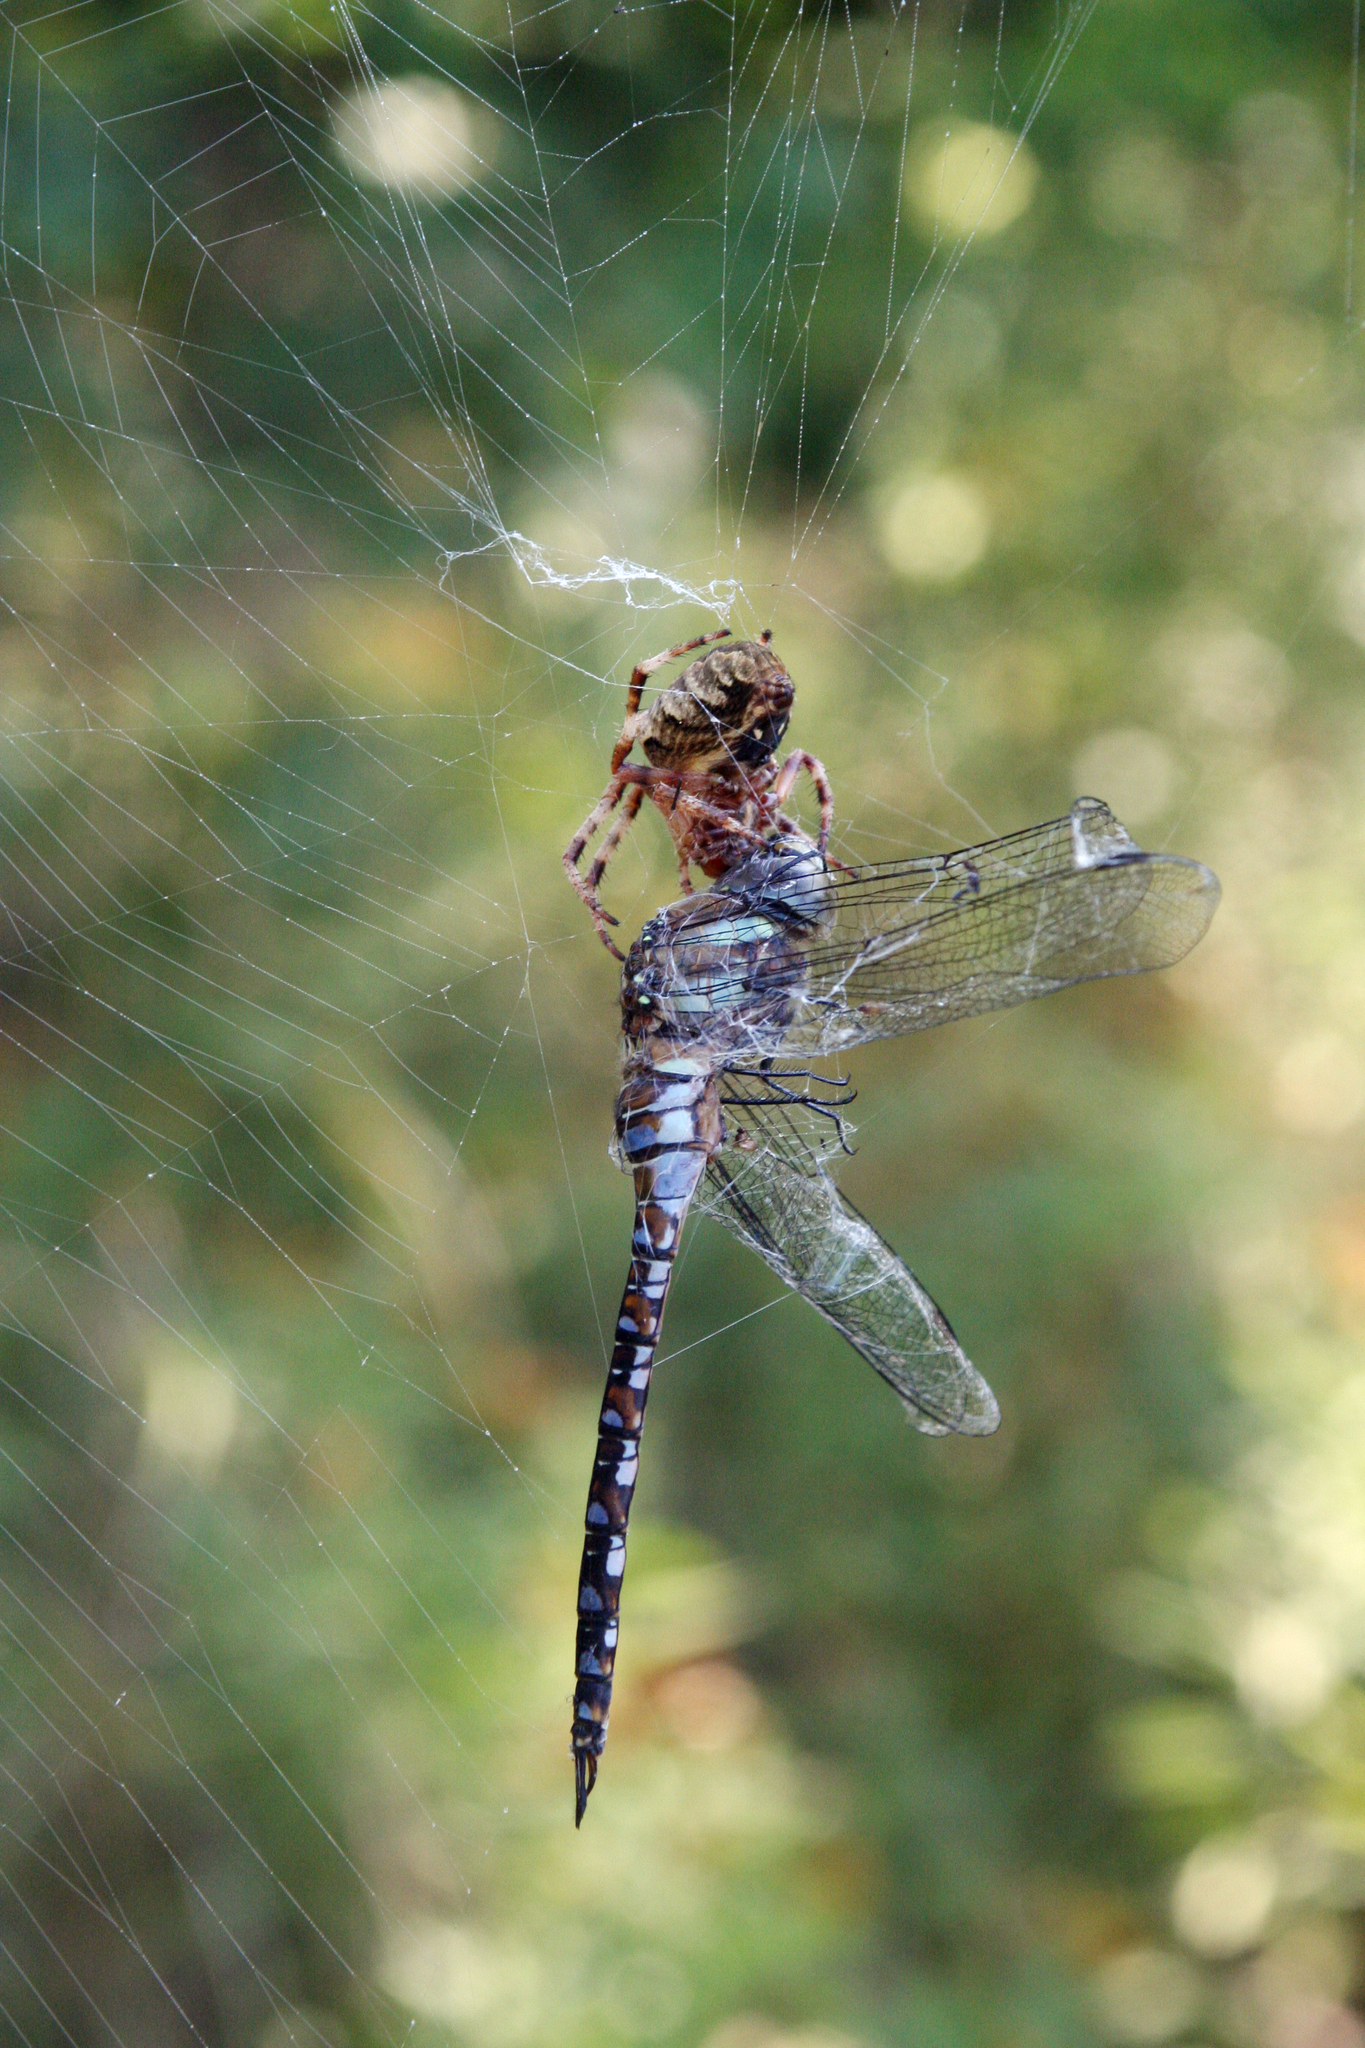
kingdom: Animalia
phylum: Arthropoda
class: Insecta
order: Odonata
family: Aeshnidae
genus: Aeshna
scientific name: Aeshna mixta
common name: Migrant hawker
